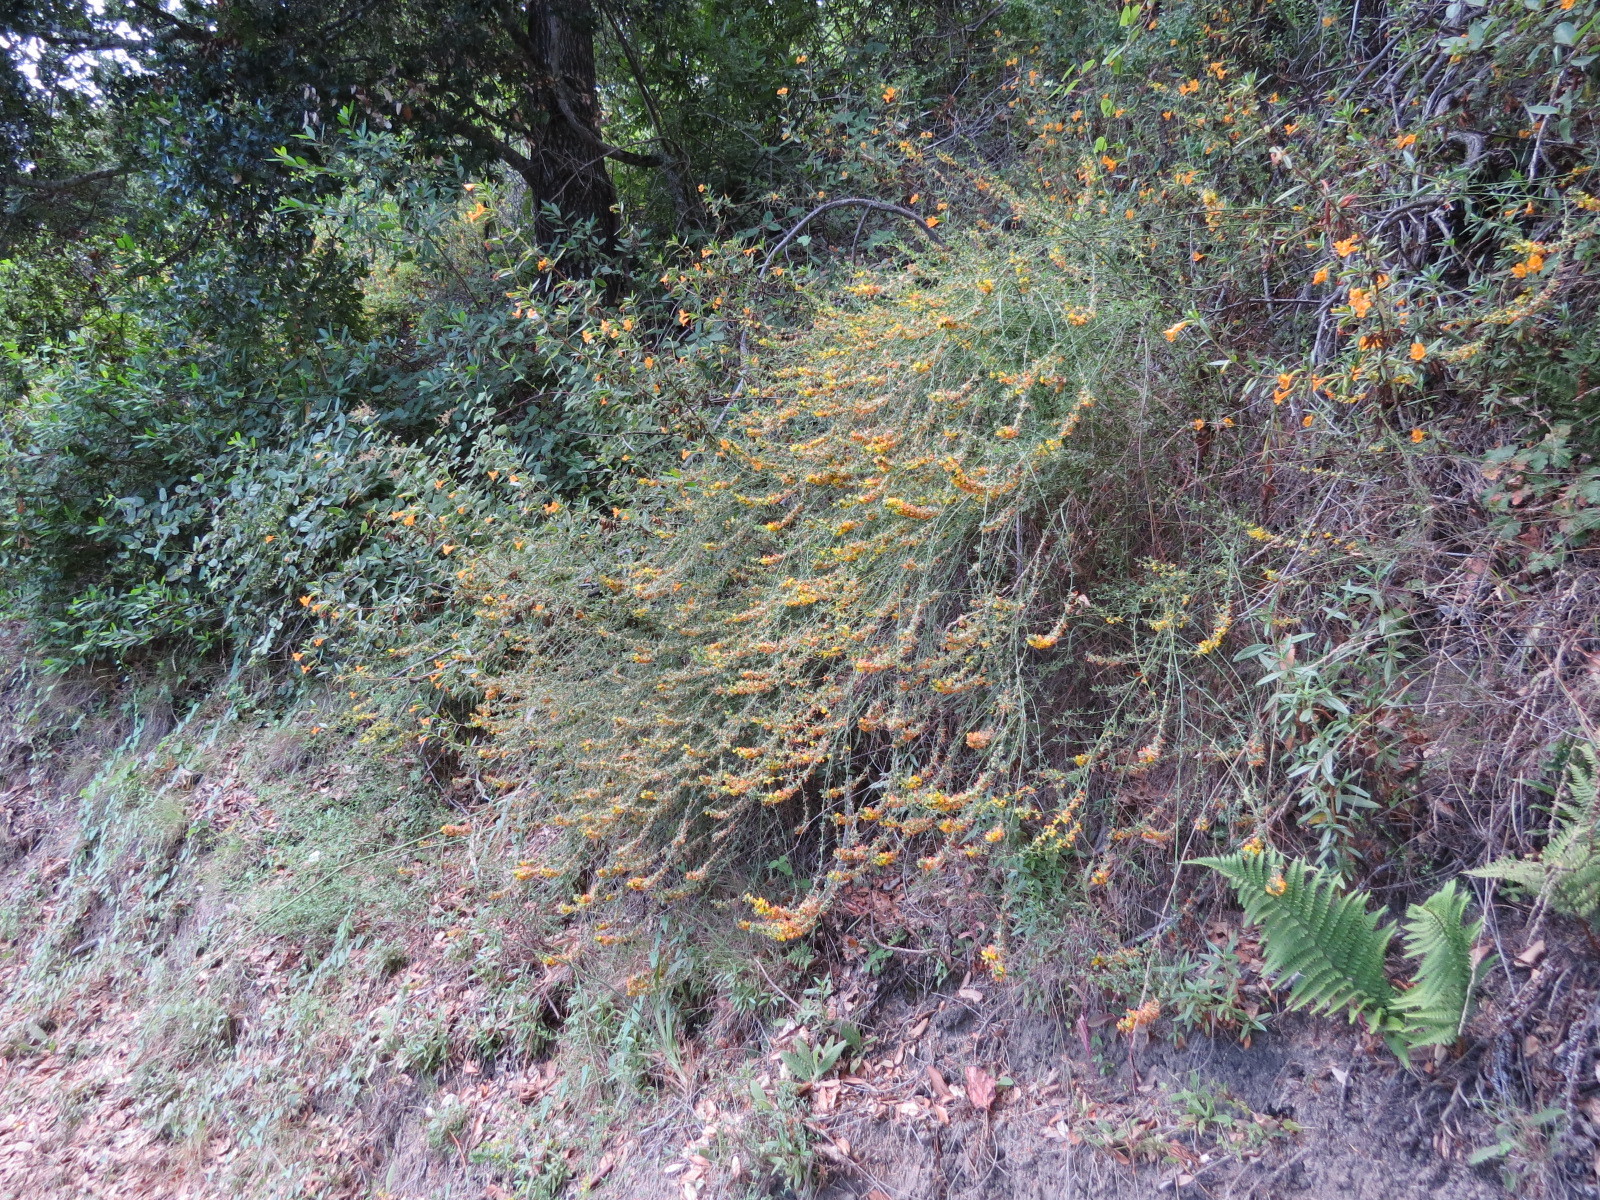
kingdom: Plantae
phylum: Tracheophyta
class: Magnoliopsida
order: Fabales
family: Fabaceae
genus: Acmispon
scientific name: Acmispon glaber
